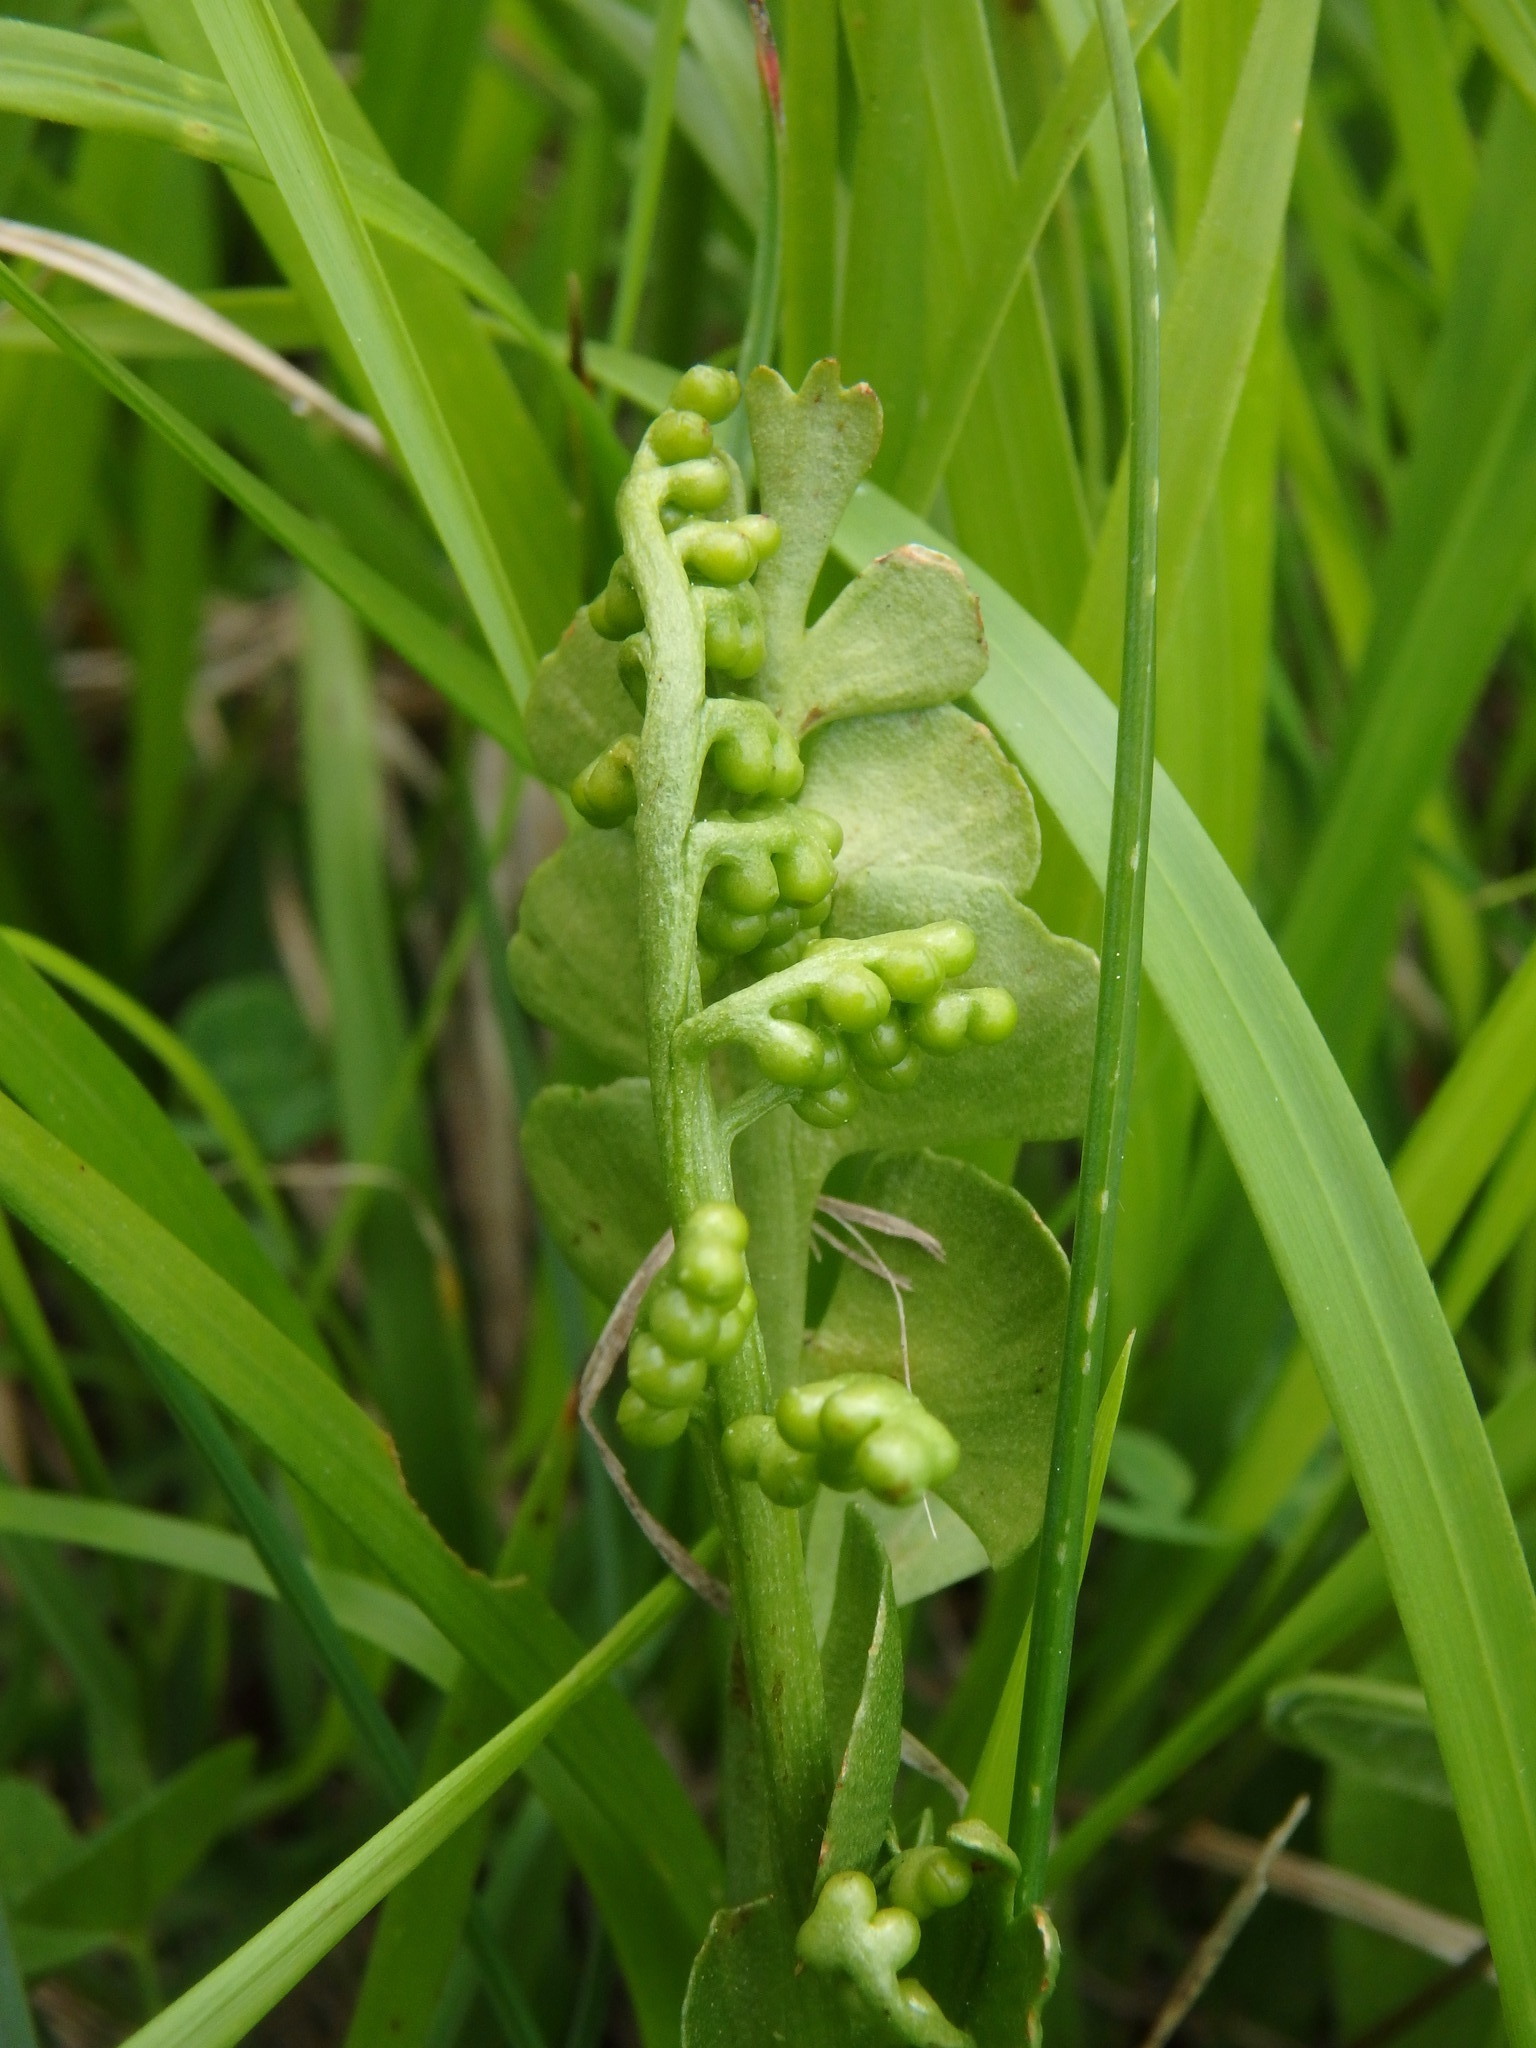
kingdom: Plantae
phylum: Tracheophyta
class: Polypodiopsida
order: Ophioglossales
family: Ophioglossaceae
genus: Botrychium
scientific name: Botrychium lunaria
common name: Moonwort
